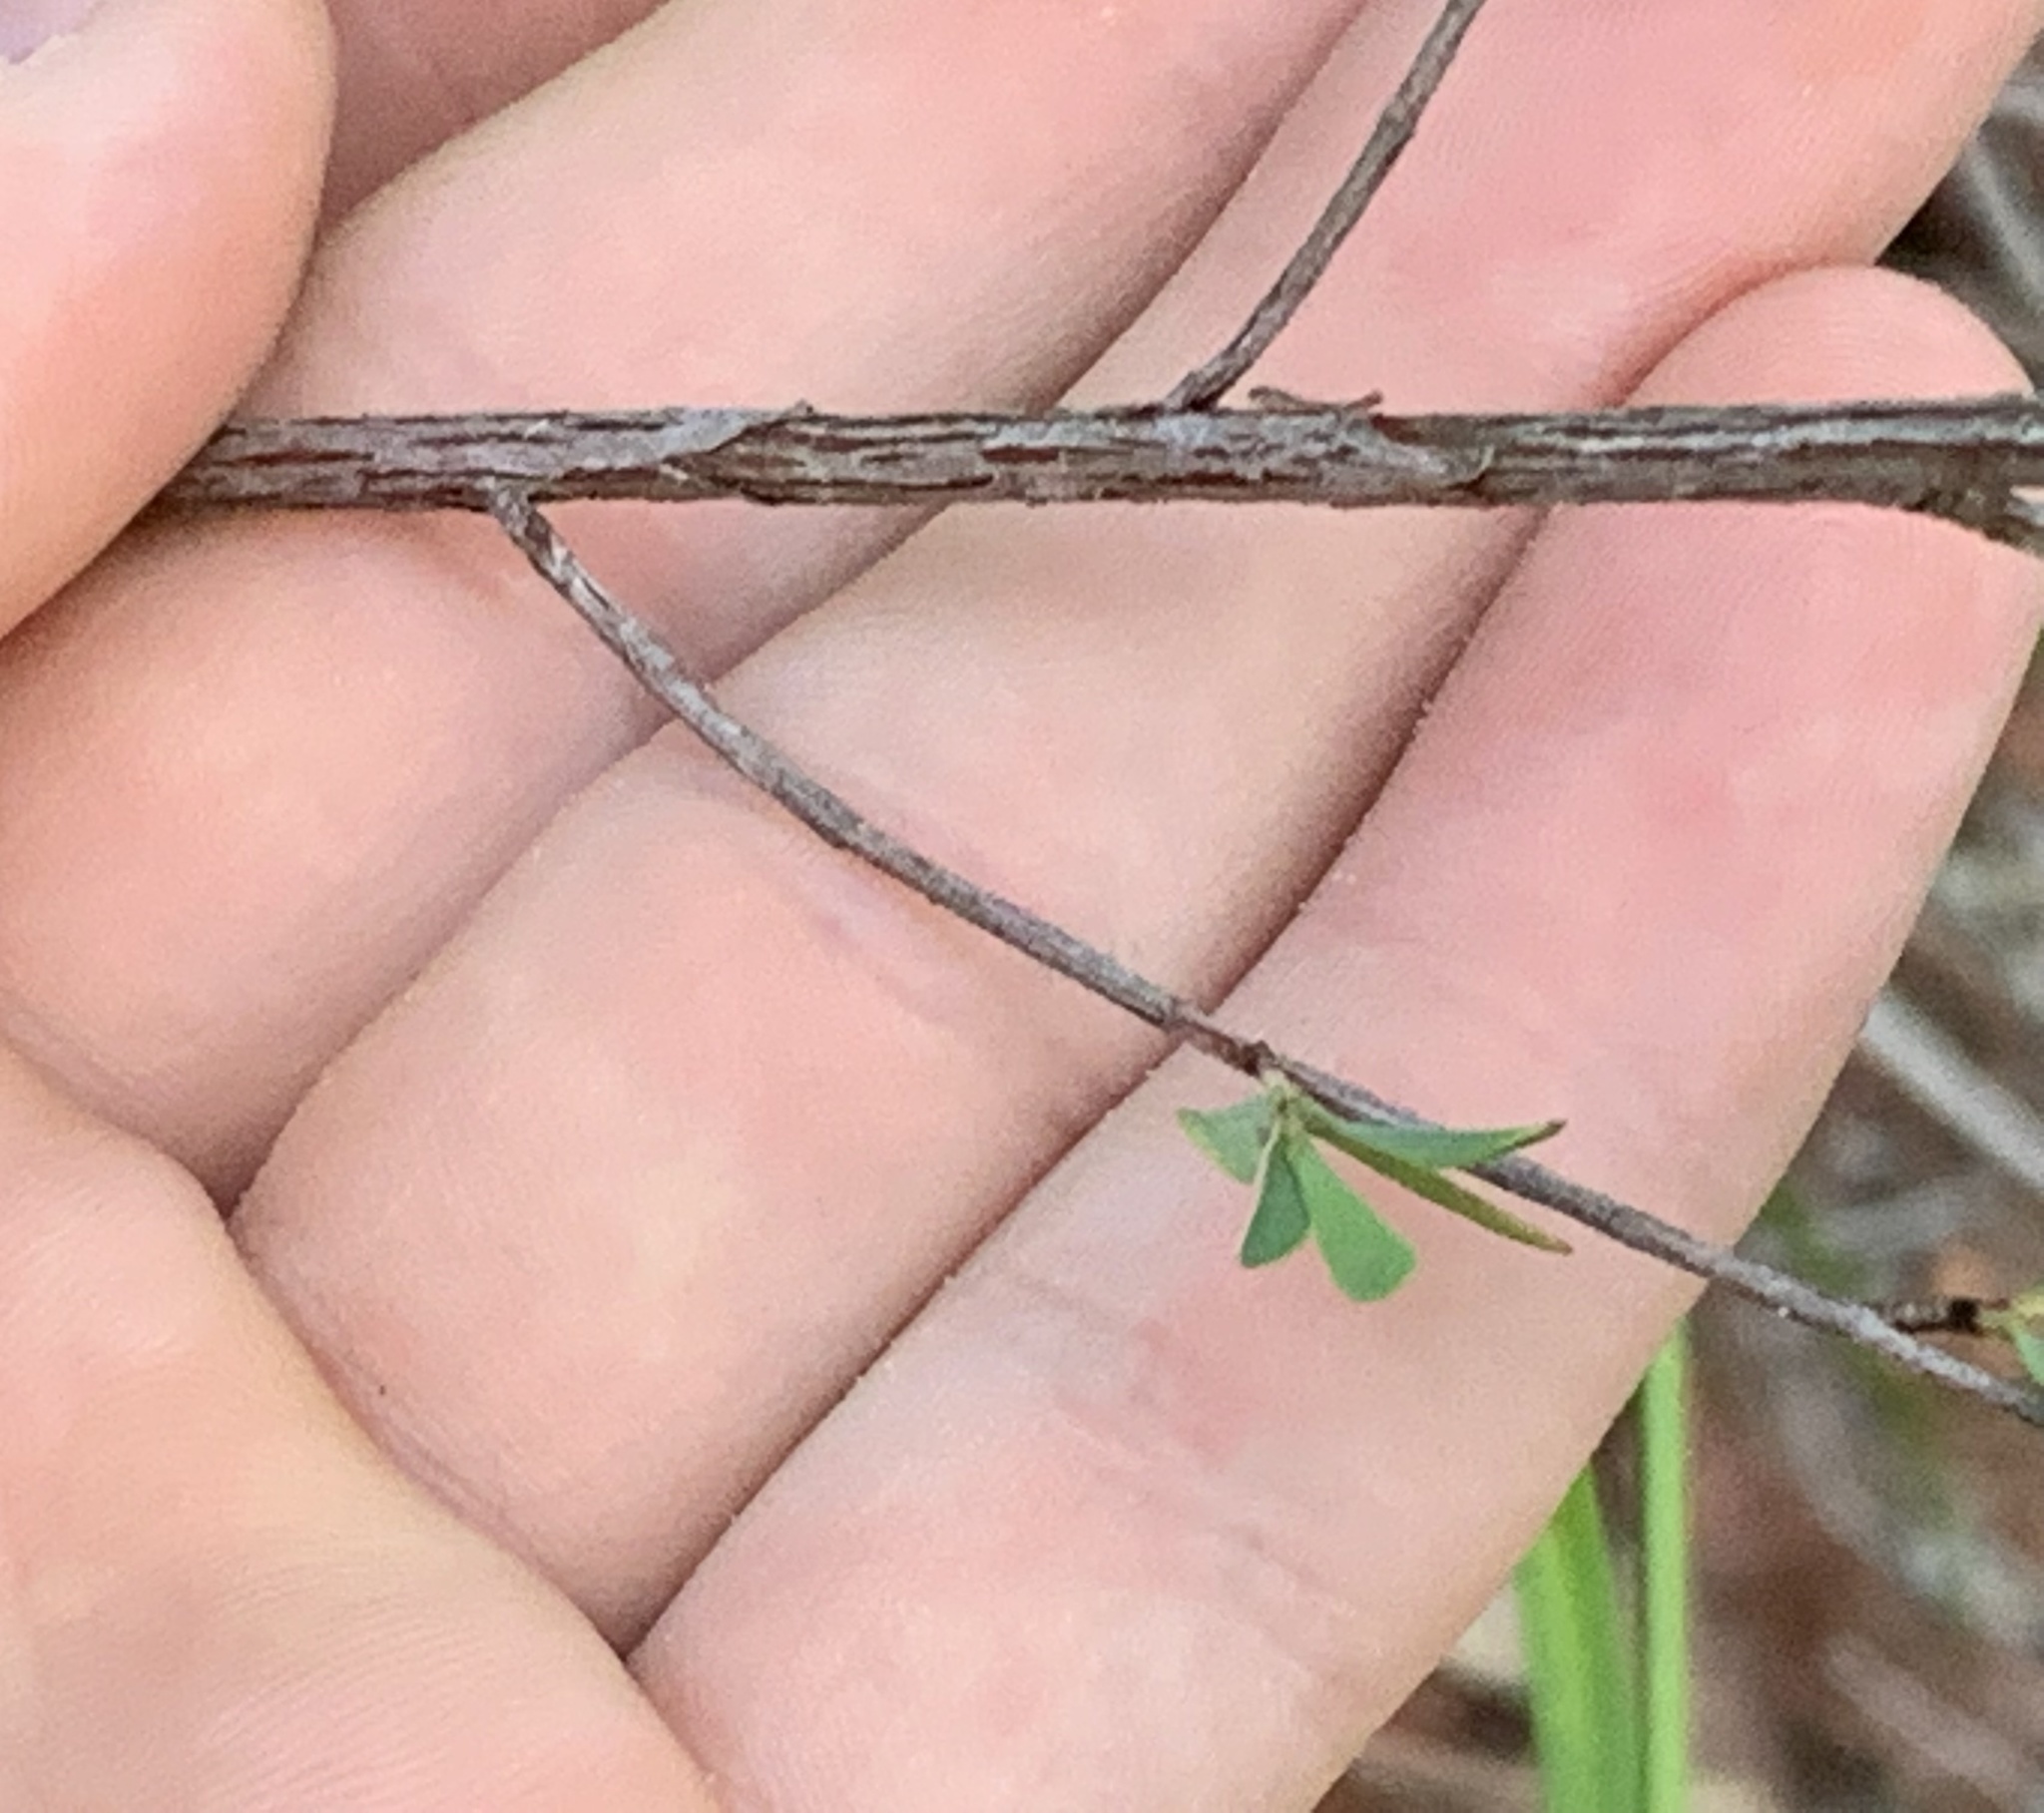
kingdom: Plantae
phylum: Tracheophyta
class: Magnoliopsida
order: Caryophyllales
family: Polygonaceae
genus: Polygonella
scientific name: Polygonella polygama
